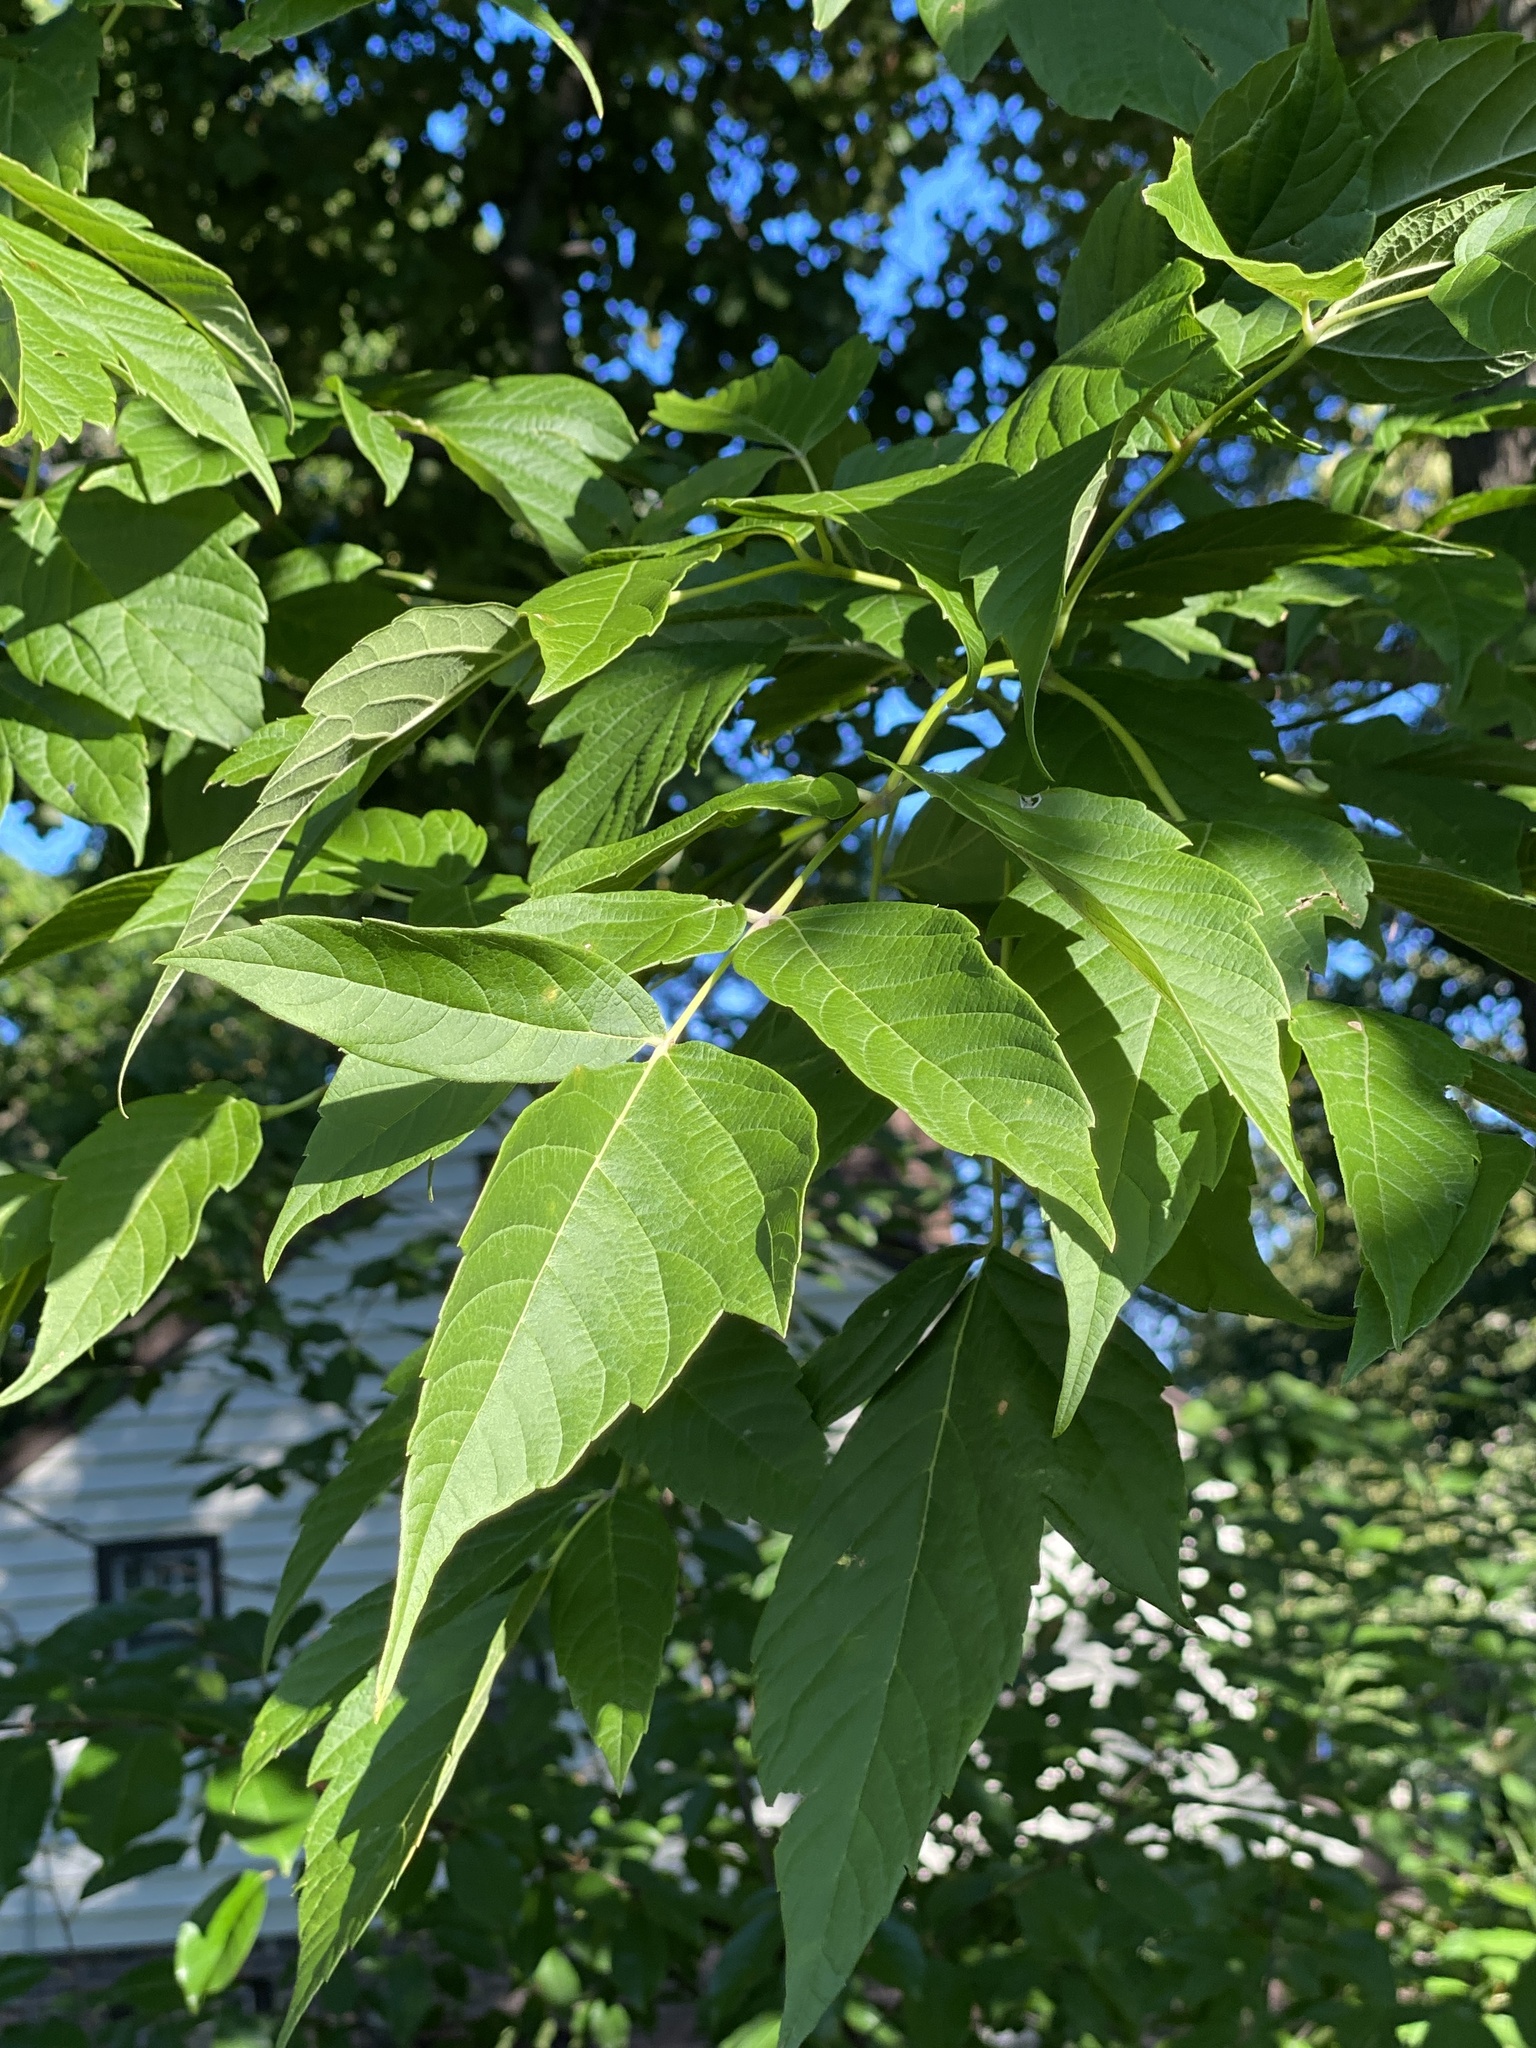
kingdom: Plantae
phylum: Tracheophyta
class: Magnoliopsida
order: Sapindales
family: Sapindaceae
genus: Acer
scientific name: Acer negundo
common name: Ashleaf maple
